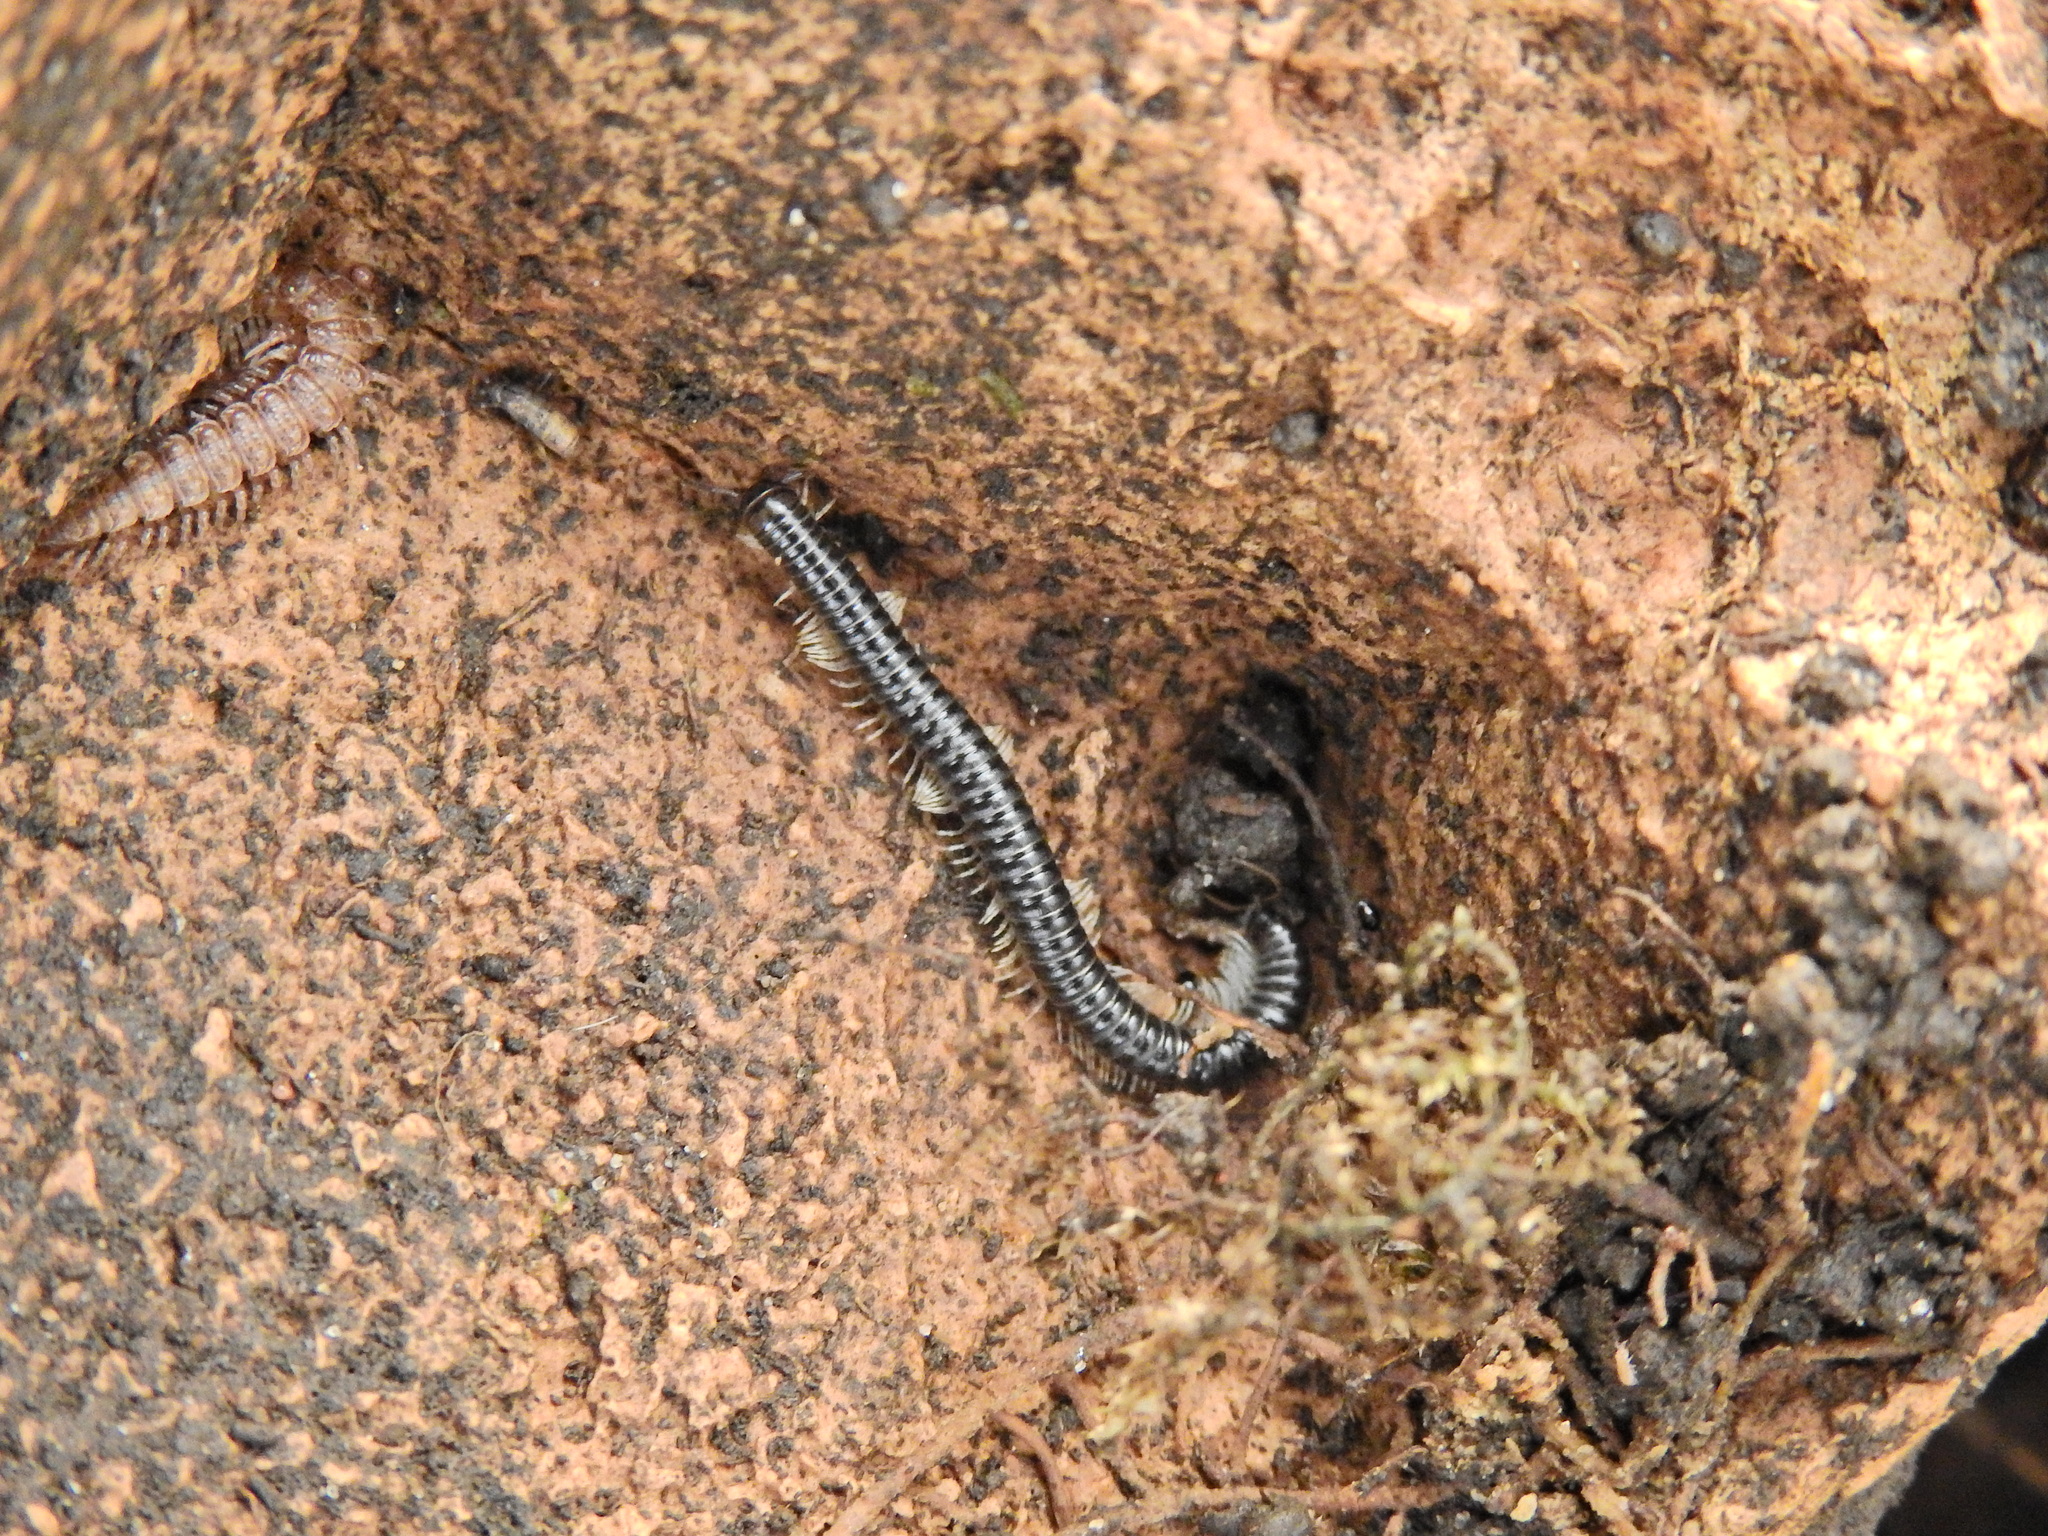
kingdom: Animalia
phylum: Arthropoda
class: Diplopoda
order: Julida
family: Julidae
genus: Tachypodoiulus
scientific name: Tachypodoiulus niger
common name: White-legged snake millipede
